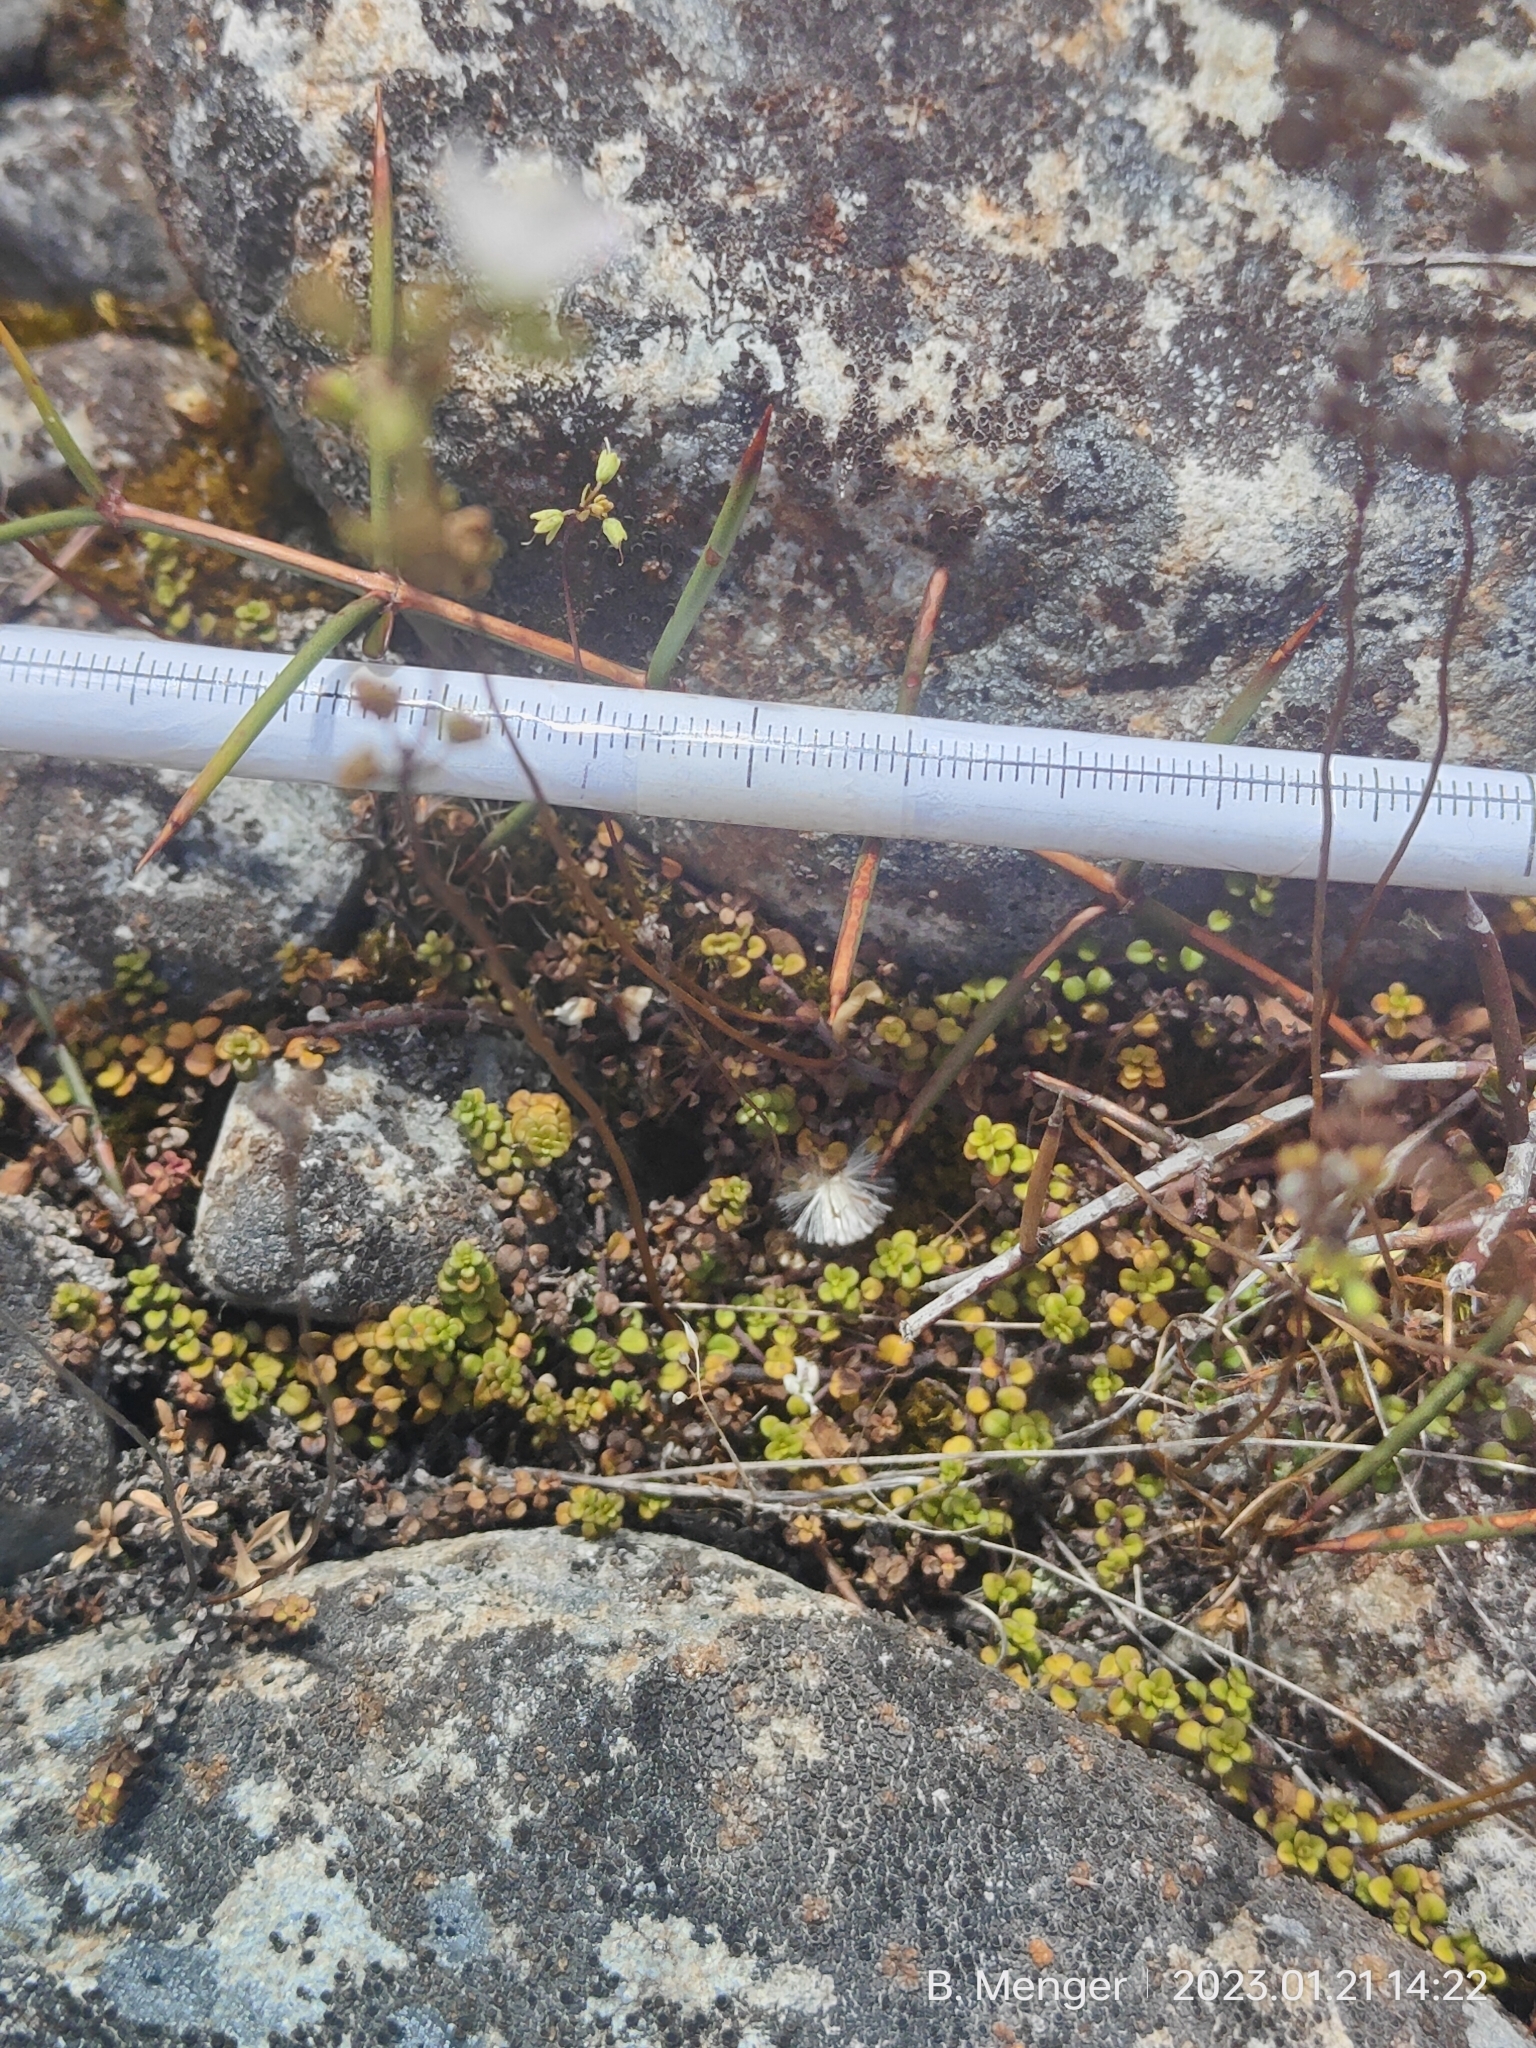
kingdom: Plantae
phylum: Tracheophyta
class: Magnoliopsida
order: Lamiales
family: Plantaginaceae
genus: Veronica
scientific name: Veronica decora
